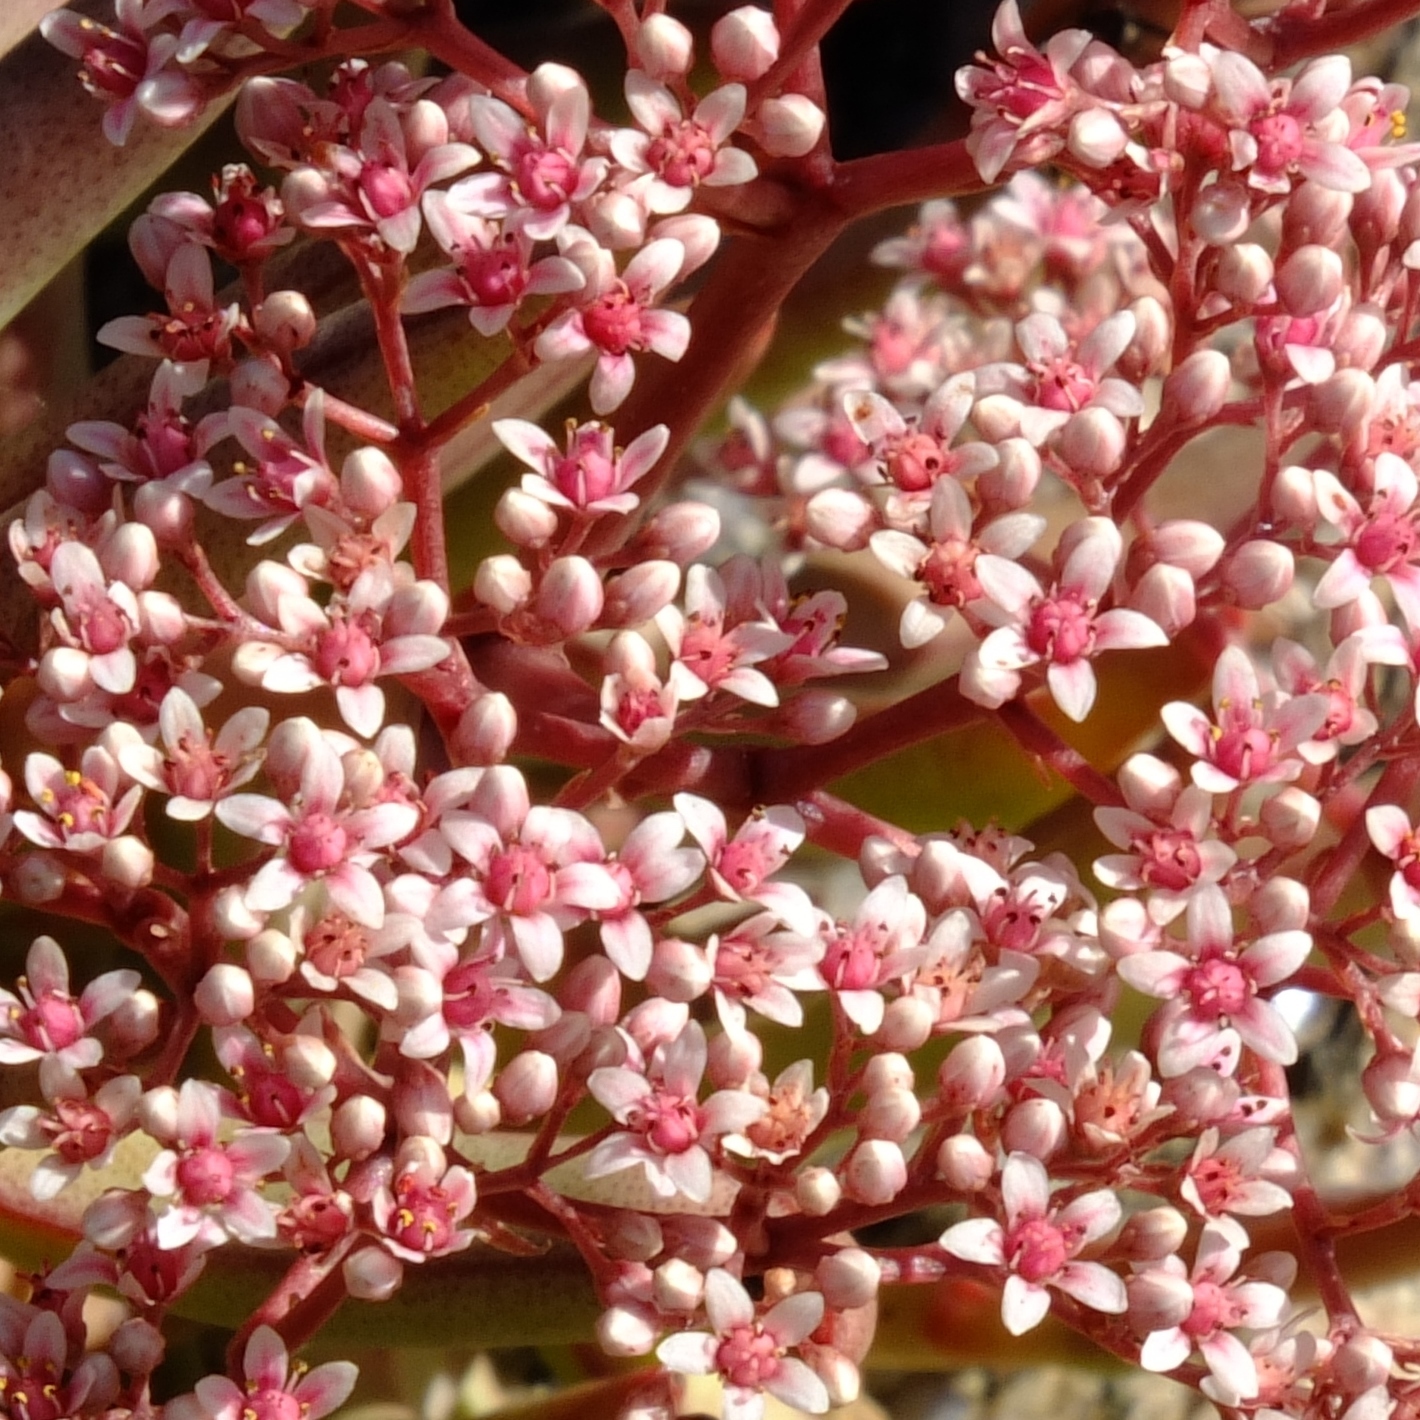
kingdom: Plantae
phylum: Tracheophyta
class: Magnoliopsida
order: Saxifragales
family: Crassulaceae
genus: Crassula
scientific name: Crassula macowaniana
